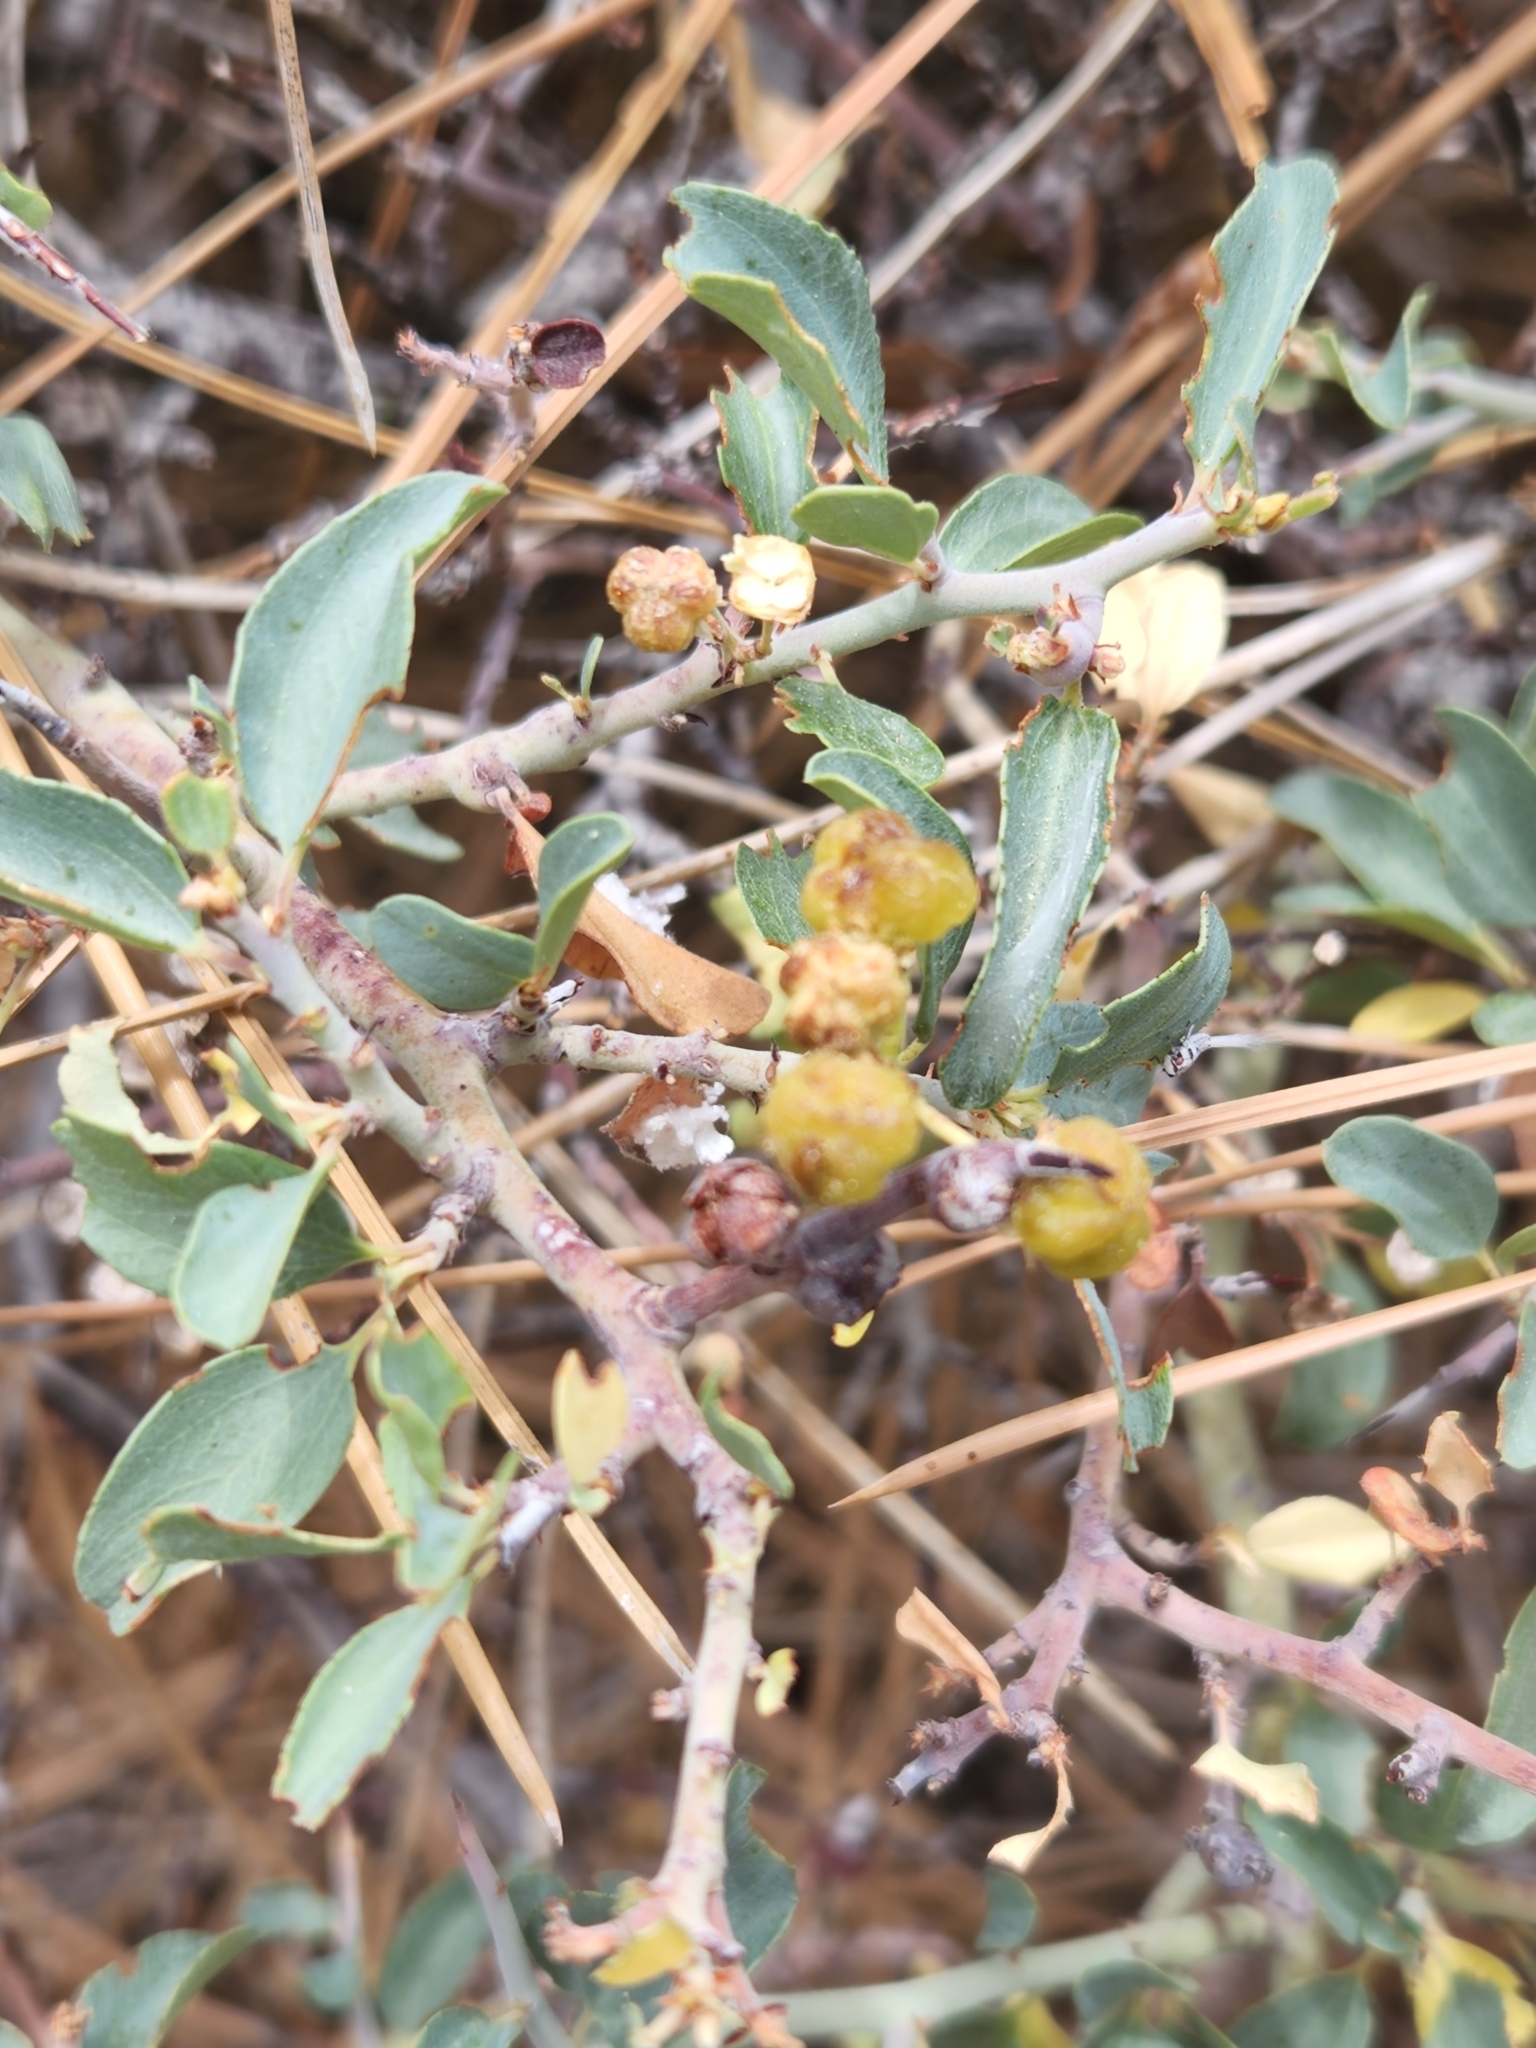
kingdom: Plantae
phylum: Tracheophyta
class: Magnoliopsida
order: Rosales
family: Rhamnaceae
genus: Ceanothus
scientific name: Ceanothus cordulatus
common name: Mountain whitethorn
